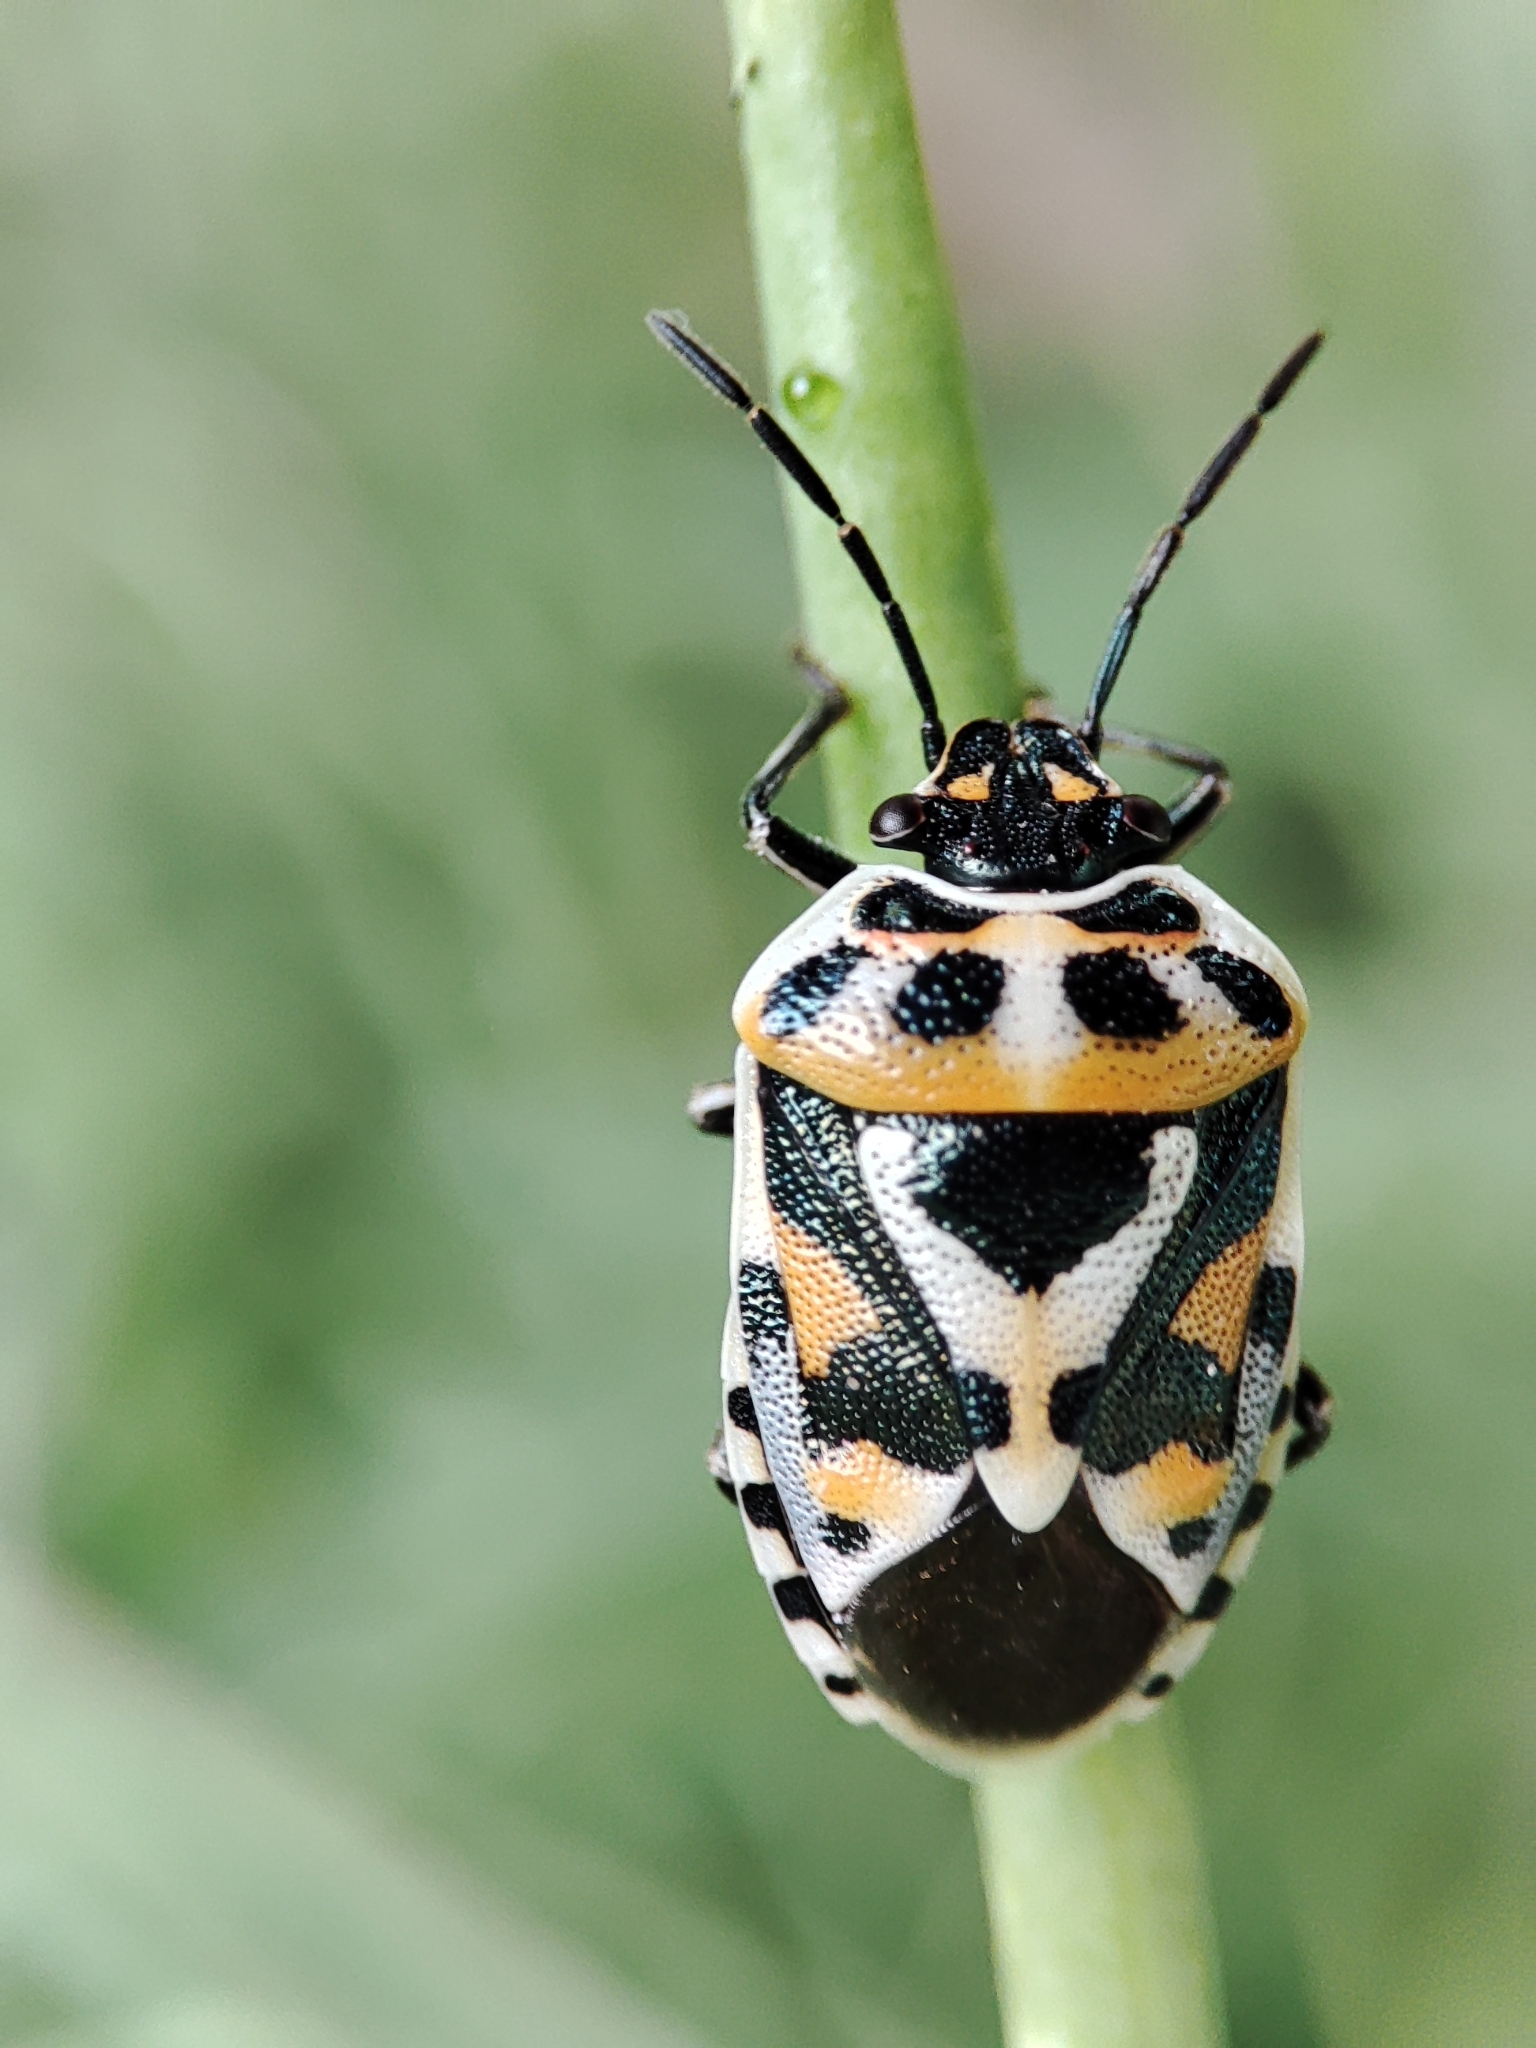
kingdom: Animalia
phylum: Arthropoda
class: Insecta
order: Hemiptera
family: Pentatomidae
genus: Eurydema
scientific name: Eurydema ornata
